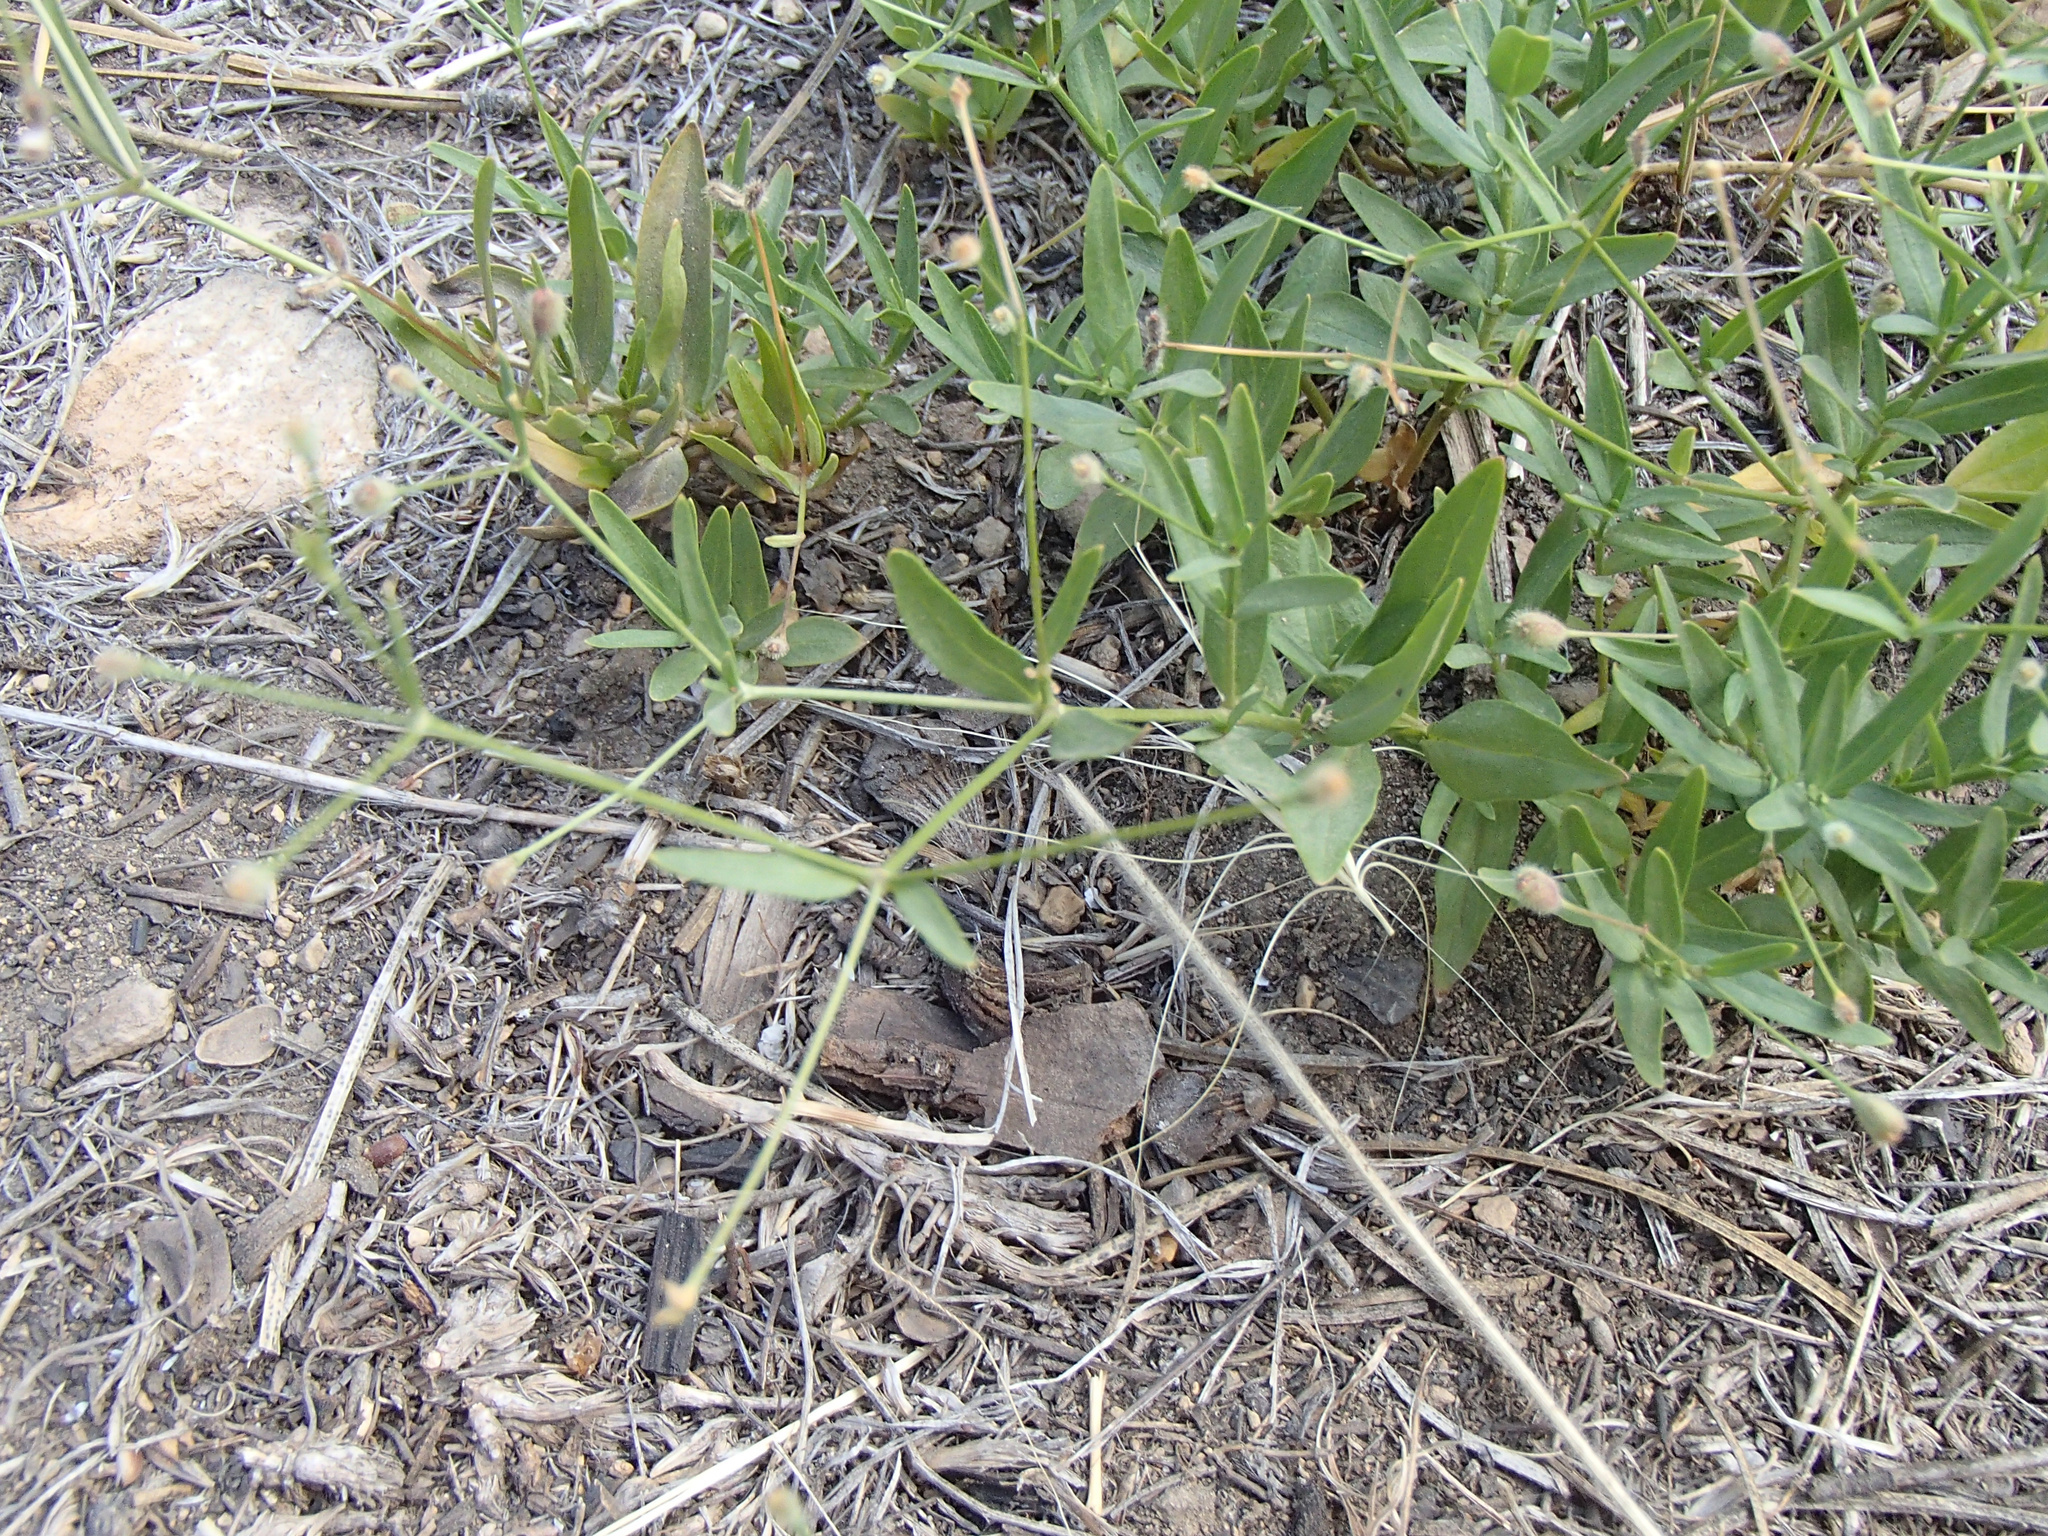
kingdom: Plantae
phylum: Tracheophyta
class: Magnoliopsida
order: Gentianales
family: Rubiaceae
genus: Kelloggia
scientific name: Kelloggia galioides
